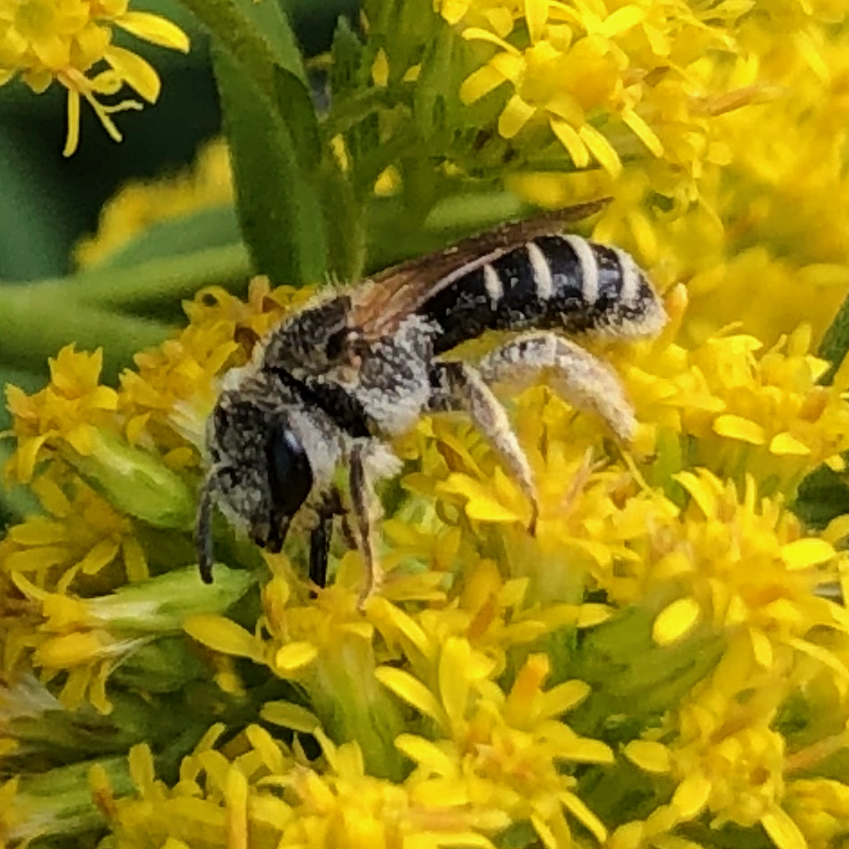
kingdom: Animalia
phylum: Arthropoda
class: Insecta
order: Hymenoptera
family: Halictidae
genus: Halictus
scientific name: Halictus ligatus
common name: Ligated furrow bee
